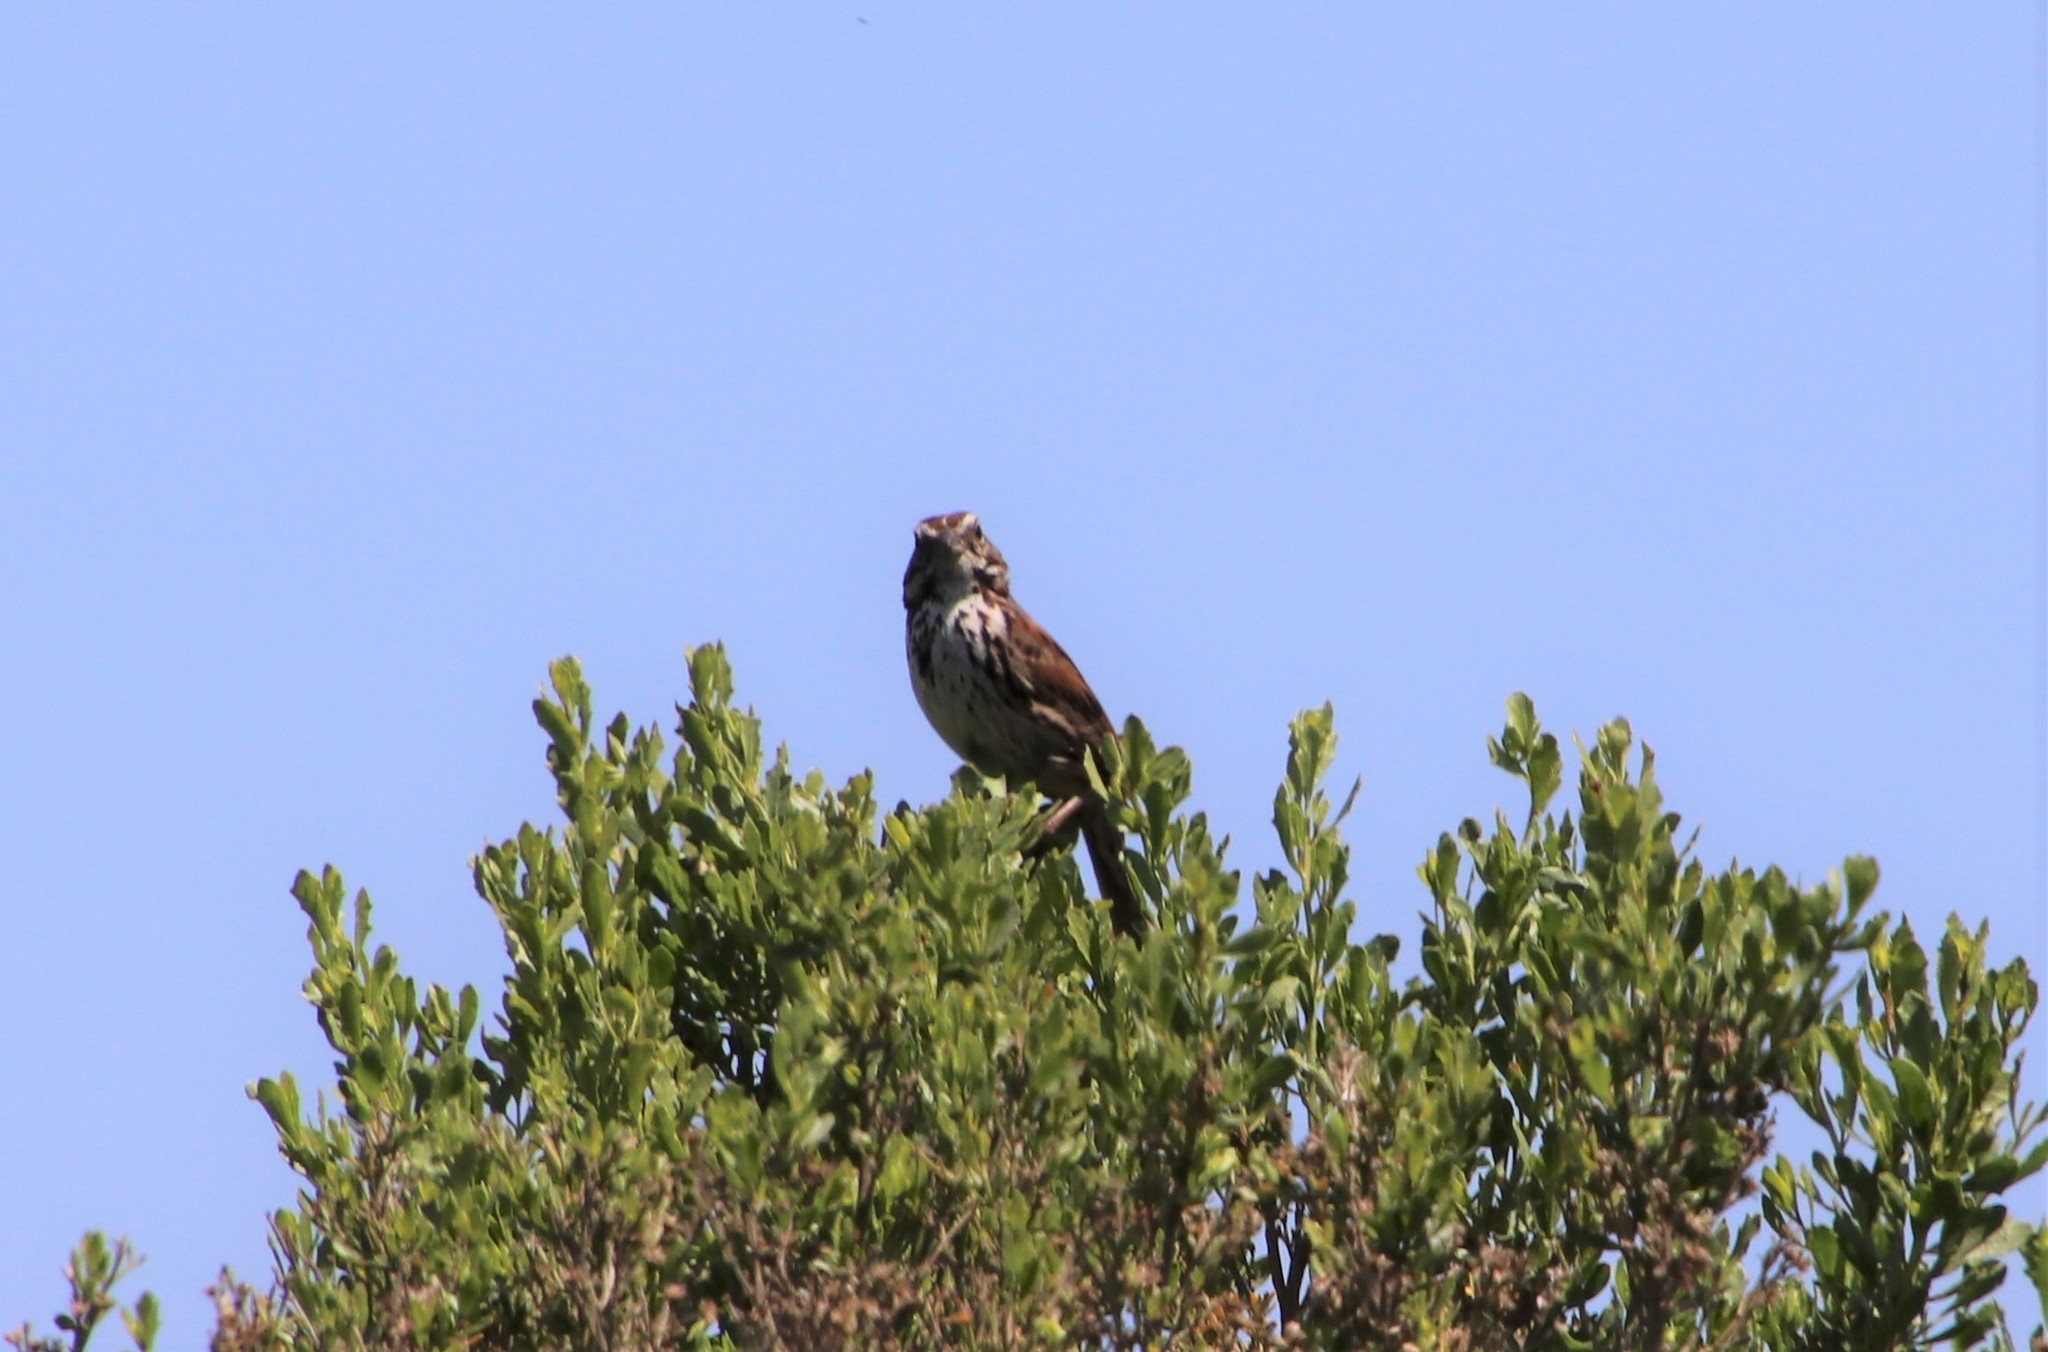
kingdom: Animalia
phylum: Chordata
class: Aves
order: Passeriformes
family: Passerellidae
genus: Melospiza
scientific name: Melospiza melodia
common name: Song sparrow
